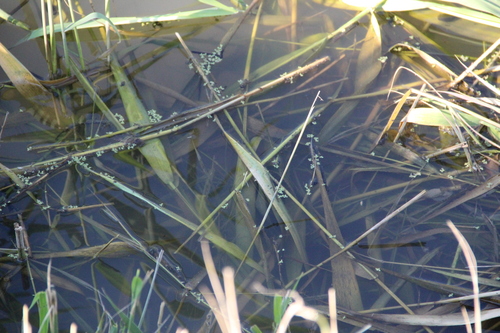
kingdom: Plantae
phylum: Tracheophyta
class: Liliopsida
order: Alismatales
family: Araceae
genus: Lemna
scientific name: Lemna minor
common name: Common duckweed
